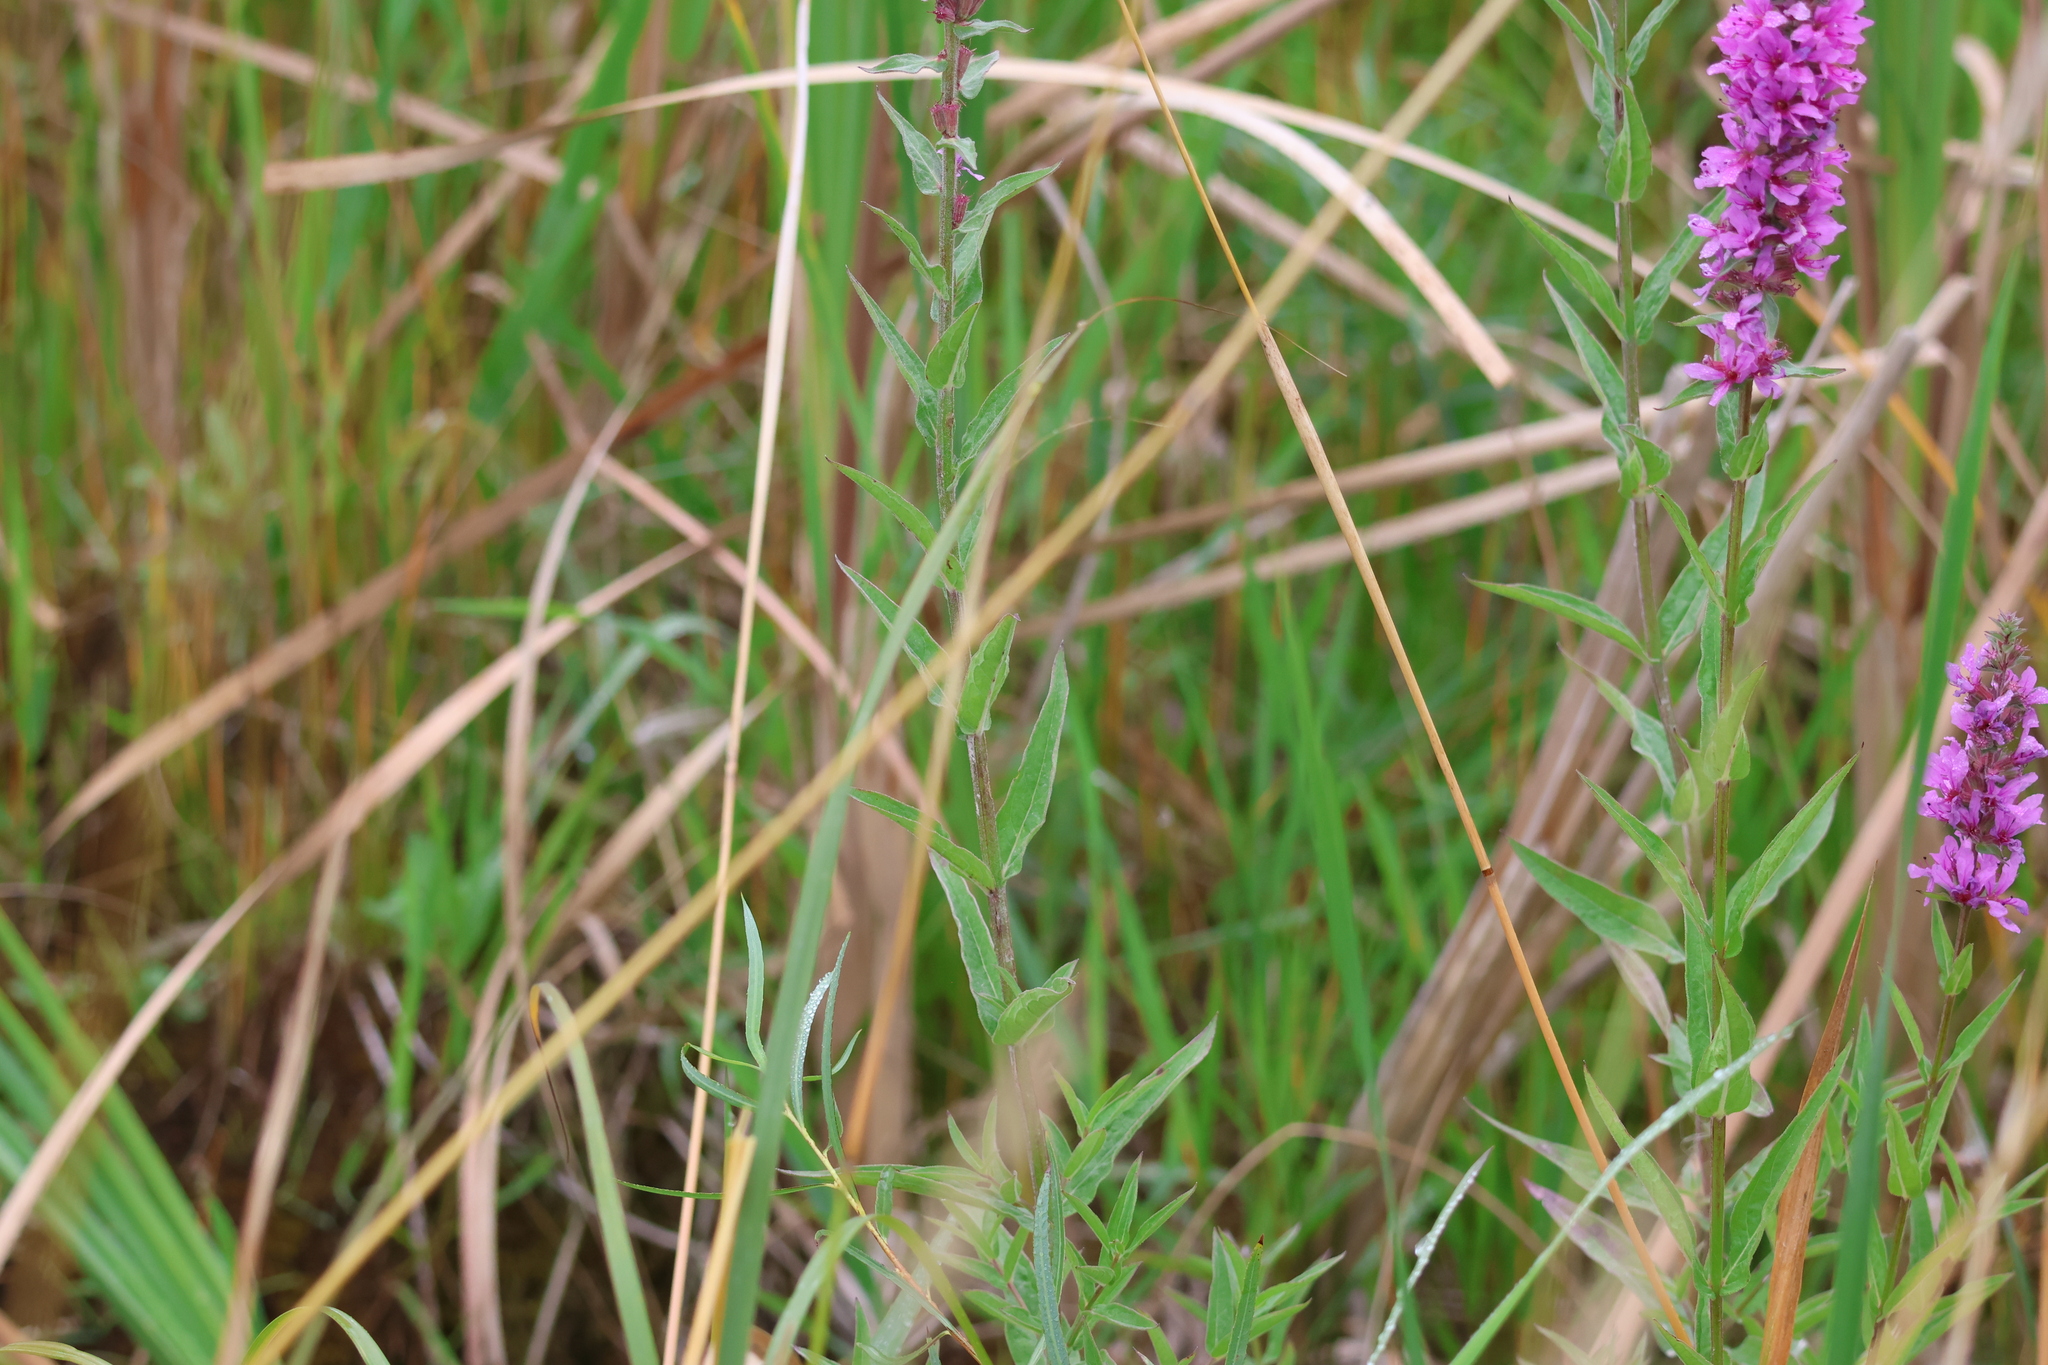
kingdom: Plantae
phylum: Tracheophyta
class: Magnoliopsida
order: Myrtales
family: Lythraceae
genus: Lythrum
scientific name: Lythrum salicaria
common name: Purple loosestrife
